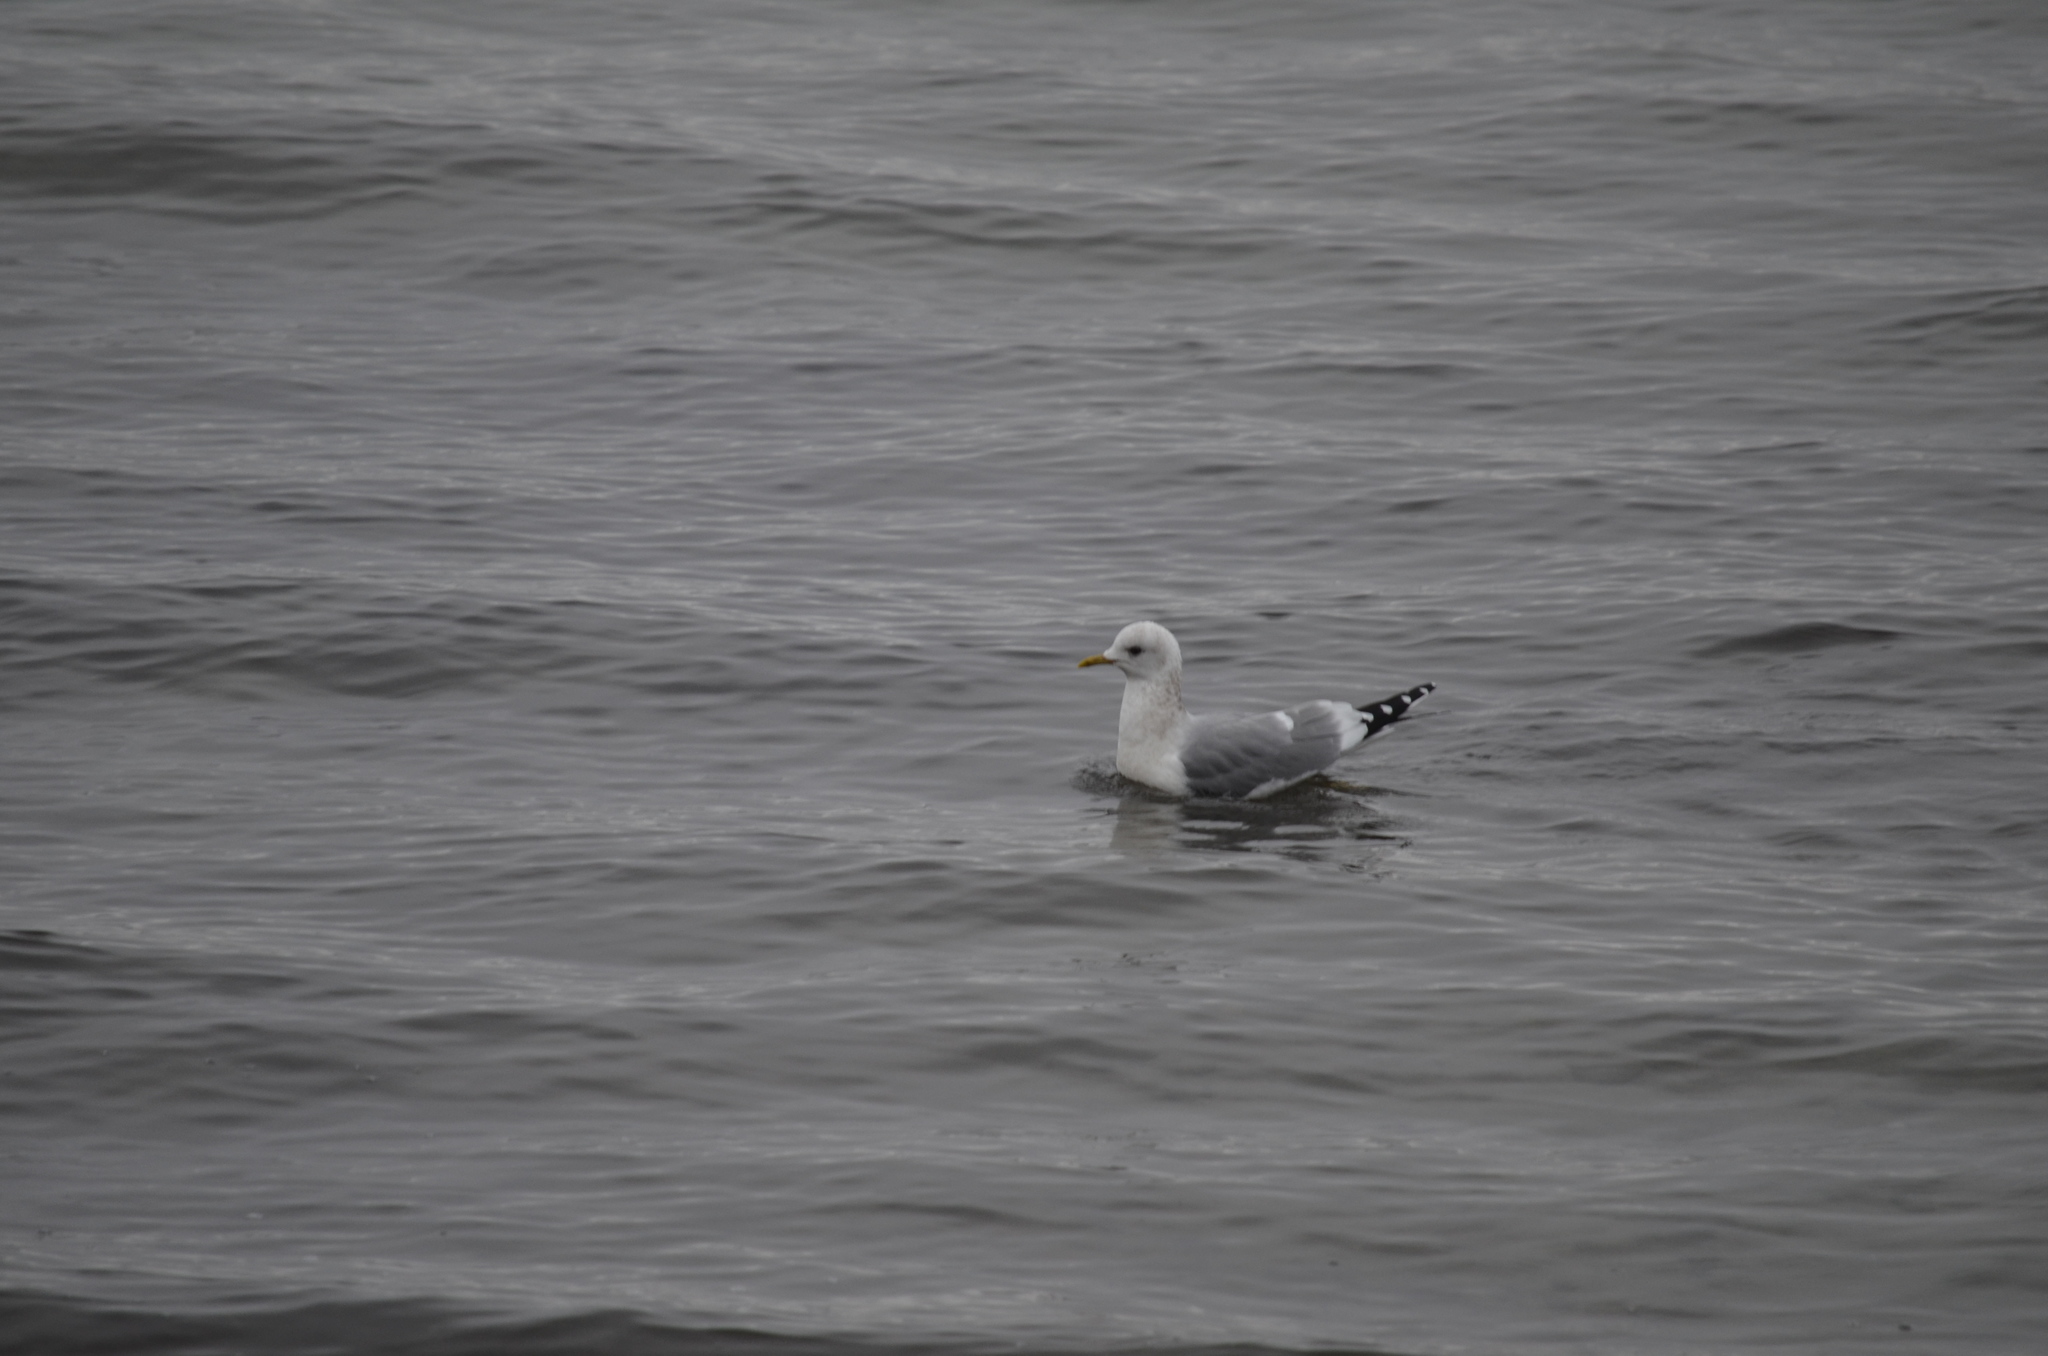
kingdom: Animalia
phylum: Chordata
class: Aves
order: Charadriiformes
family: Laridae
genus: Larus
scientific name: Larus brachyrhynchus
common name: Short-billed gull
